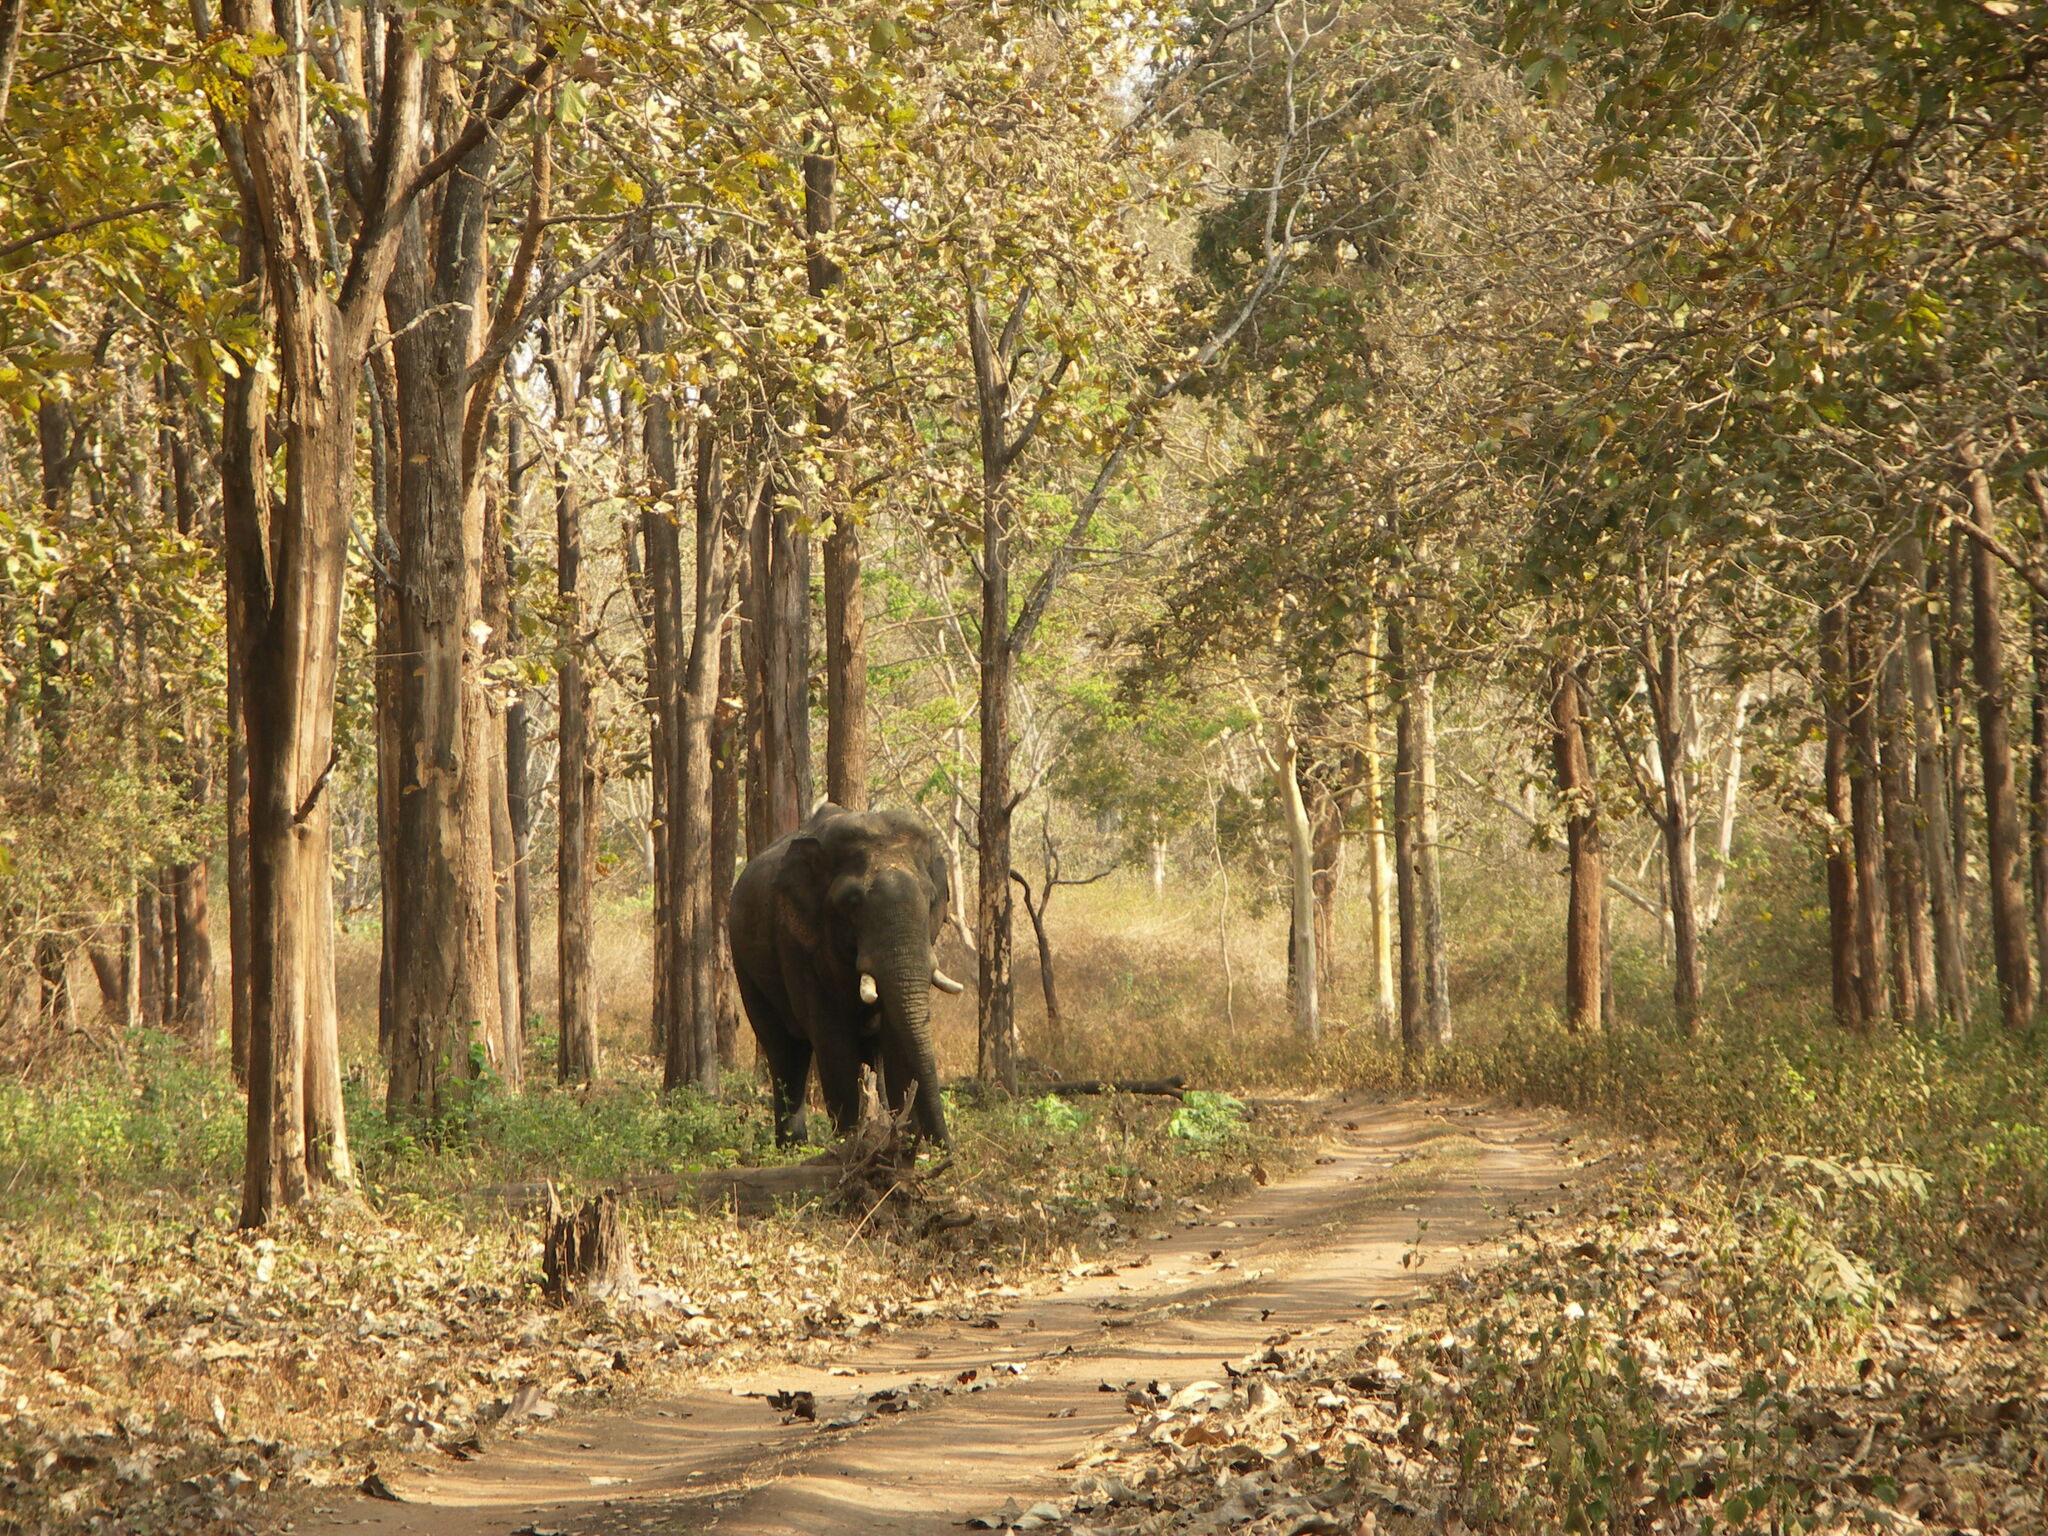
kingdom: Animalia
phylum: Chordata
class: Mammalia
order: Proboscidea
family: Elephantidae
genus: Elephas
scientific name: Elephas maximus
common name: Asian elephant
